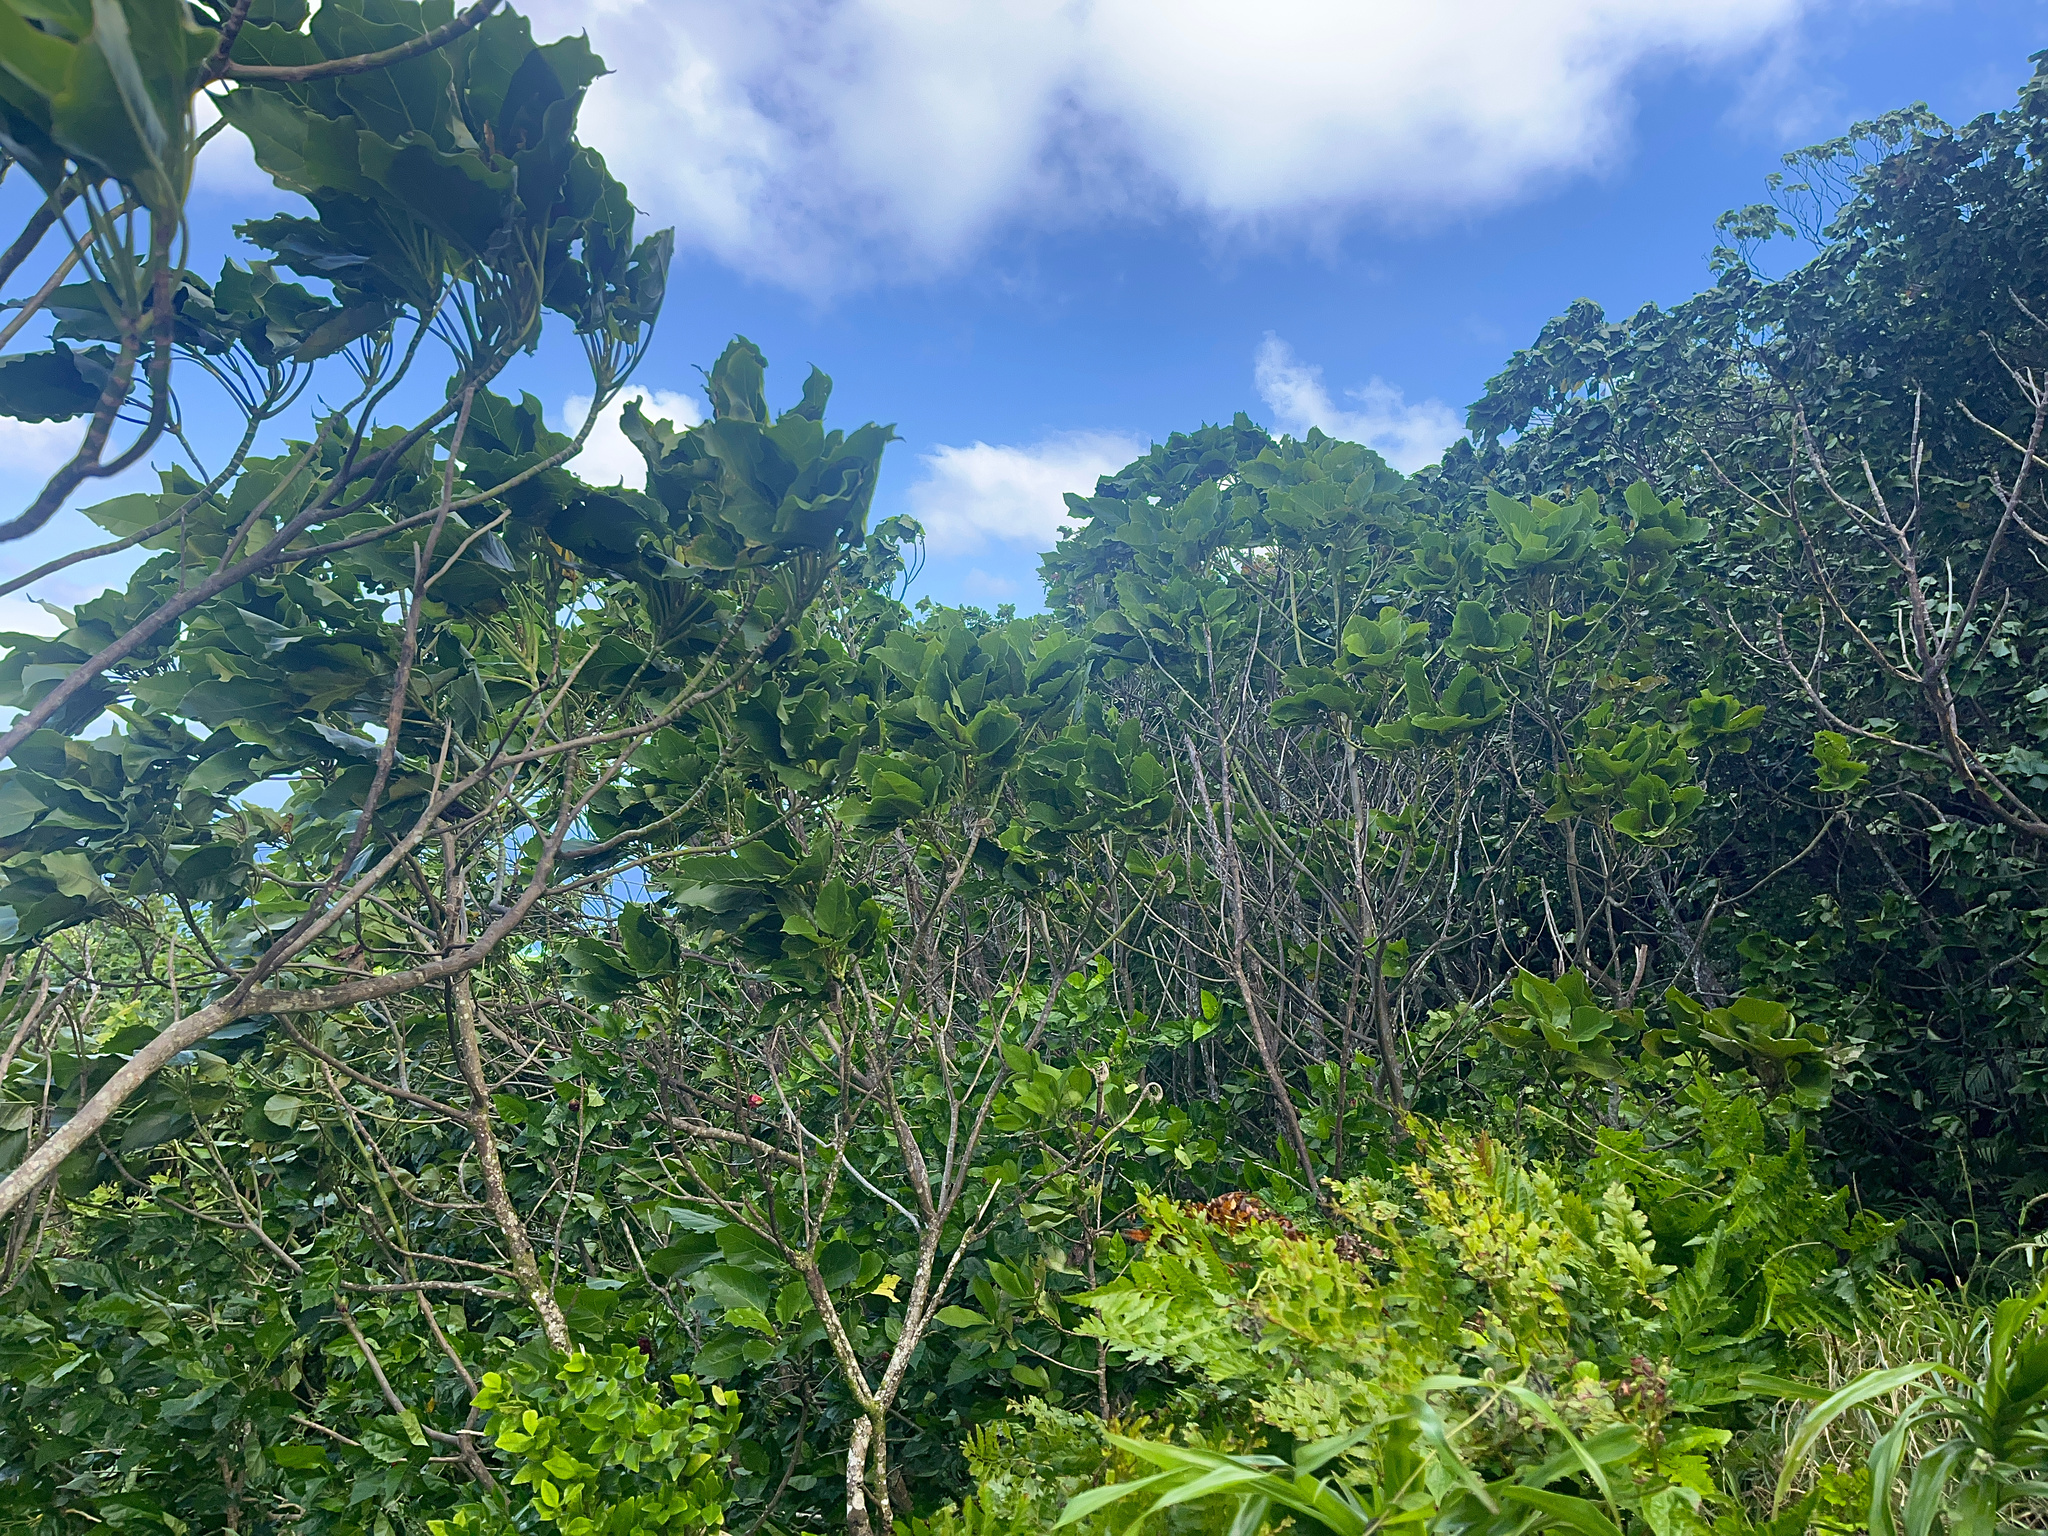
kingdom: Plantae
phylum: Tracheophyta
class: Magnoliopsida
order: Asterales
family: Asteraceae
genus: Fitchia
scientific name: Fitchia speciosa
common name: Burr daisytree
